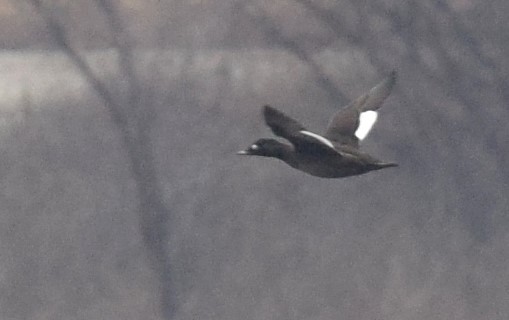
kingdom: Animalia
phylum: Chordata
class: Aves
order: Anseriformes
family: Anatidae
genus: Melanitta
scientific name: Melanitta deglandi
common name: White-winged scoter
